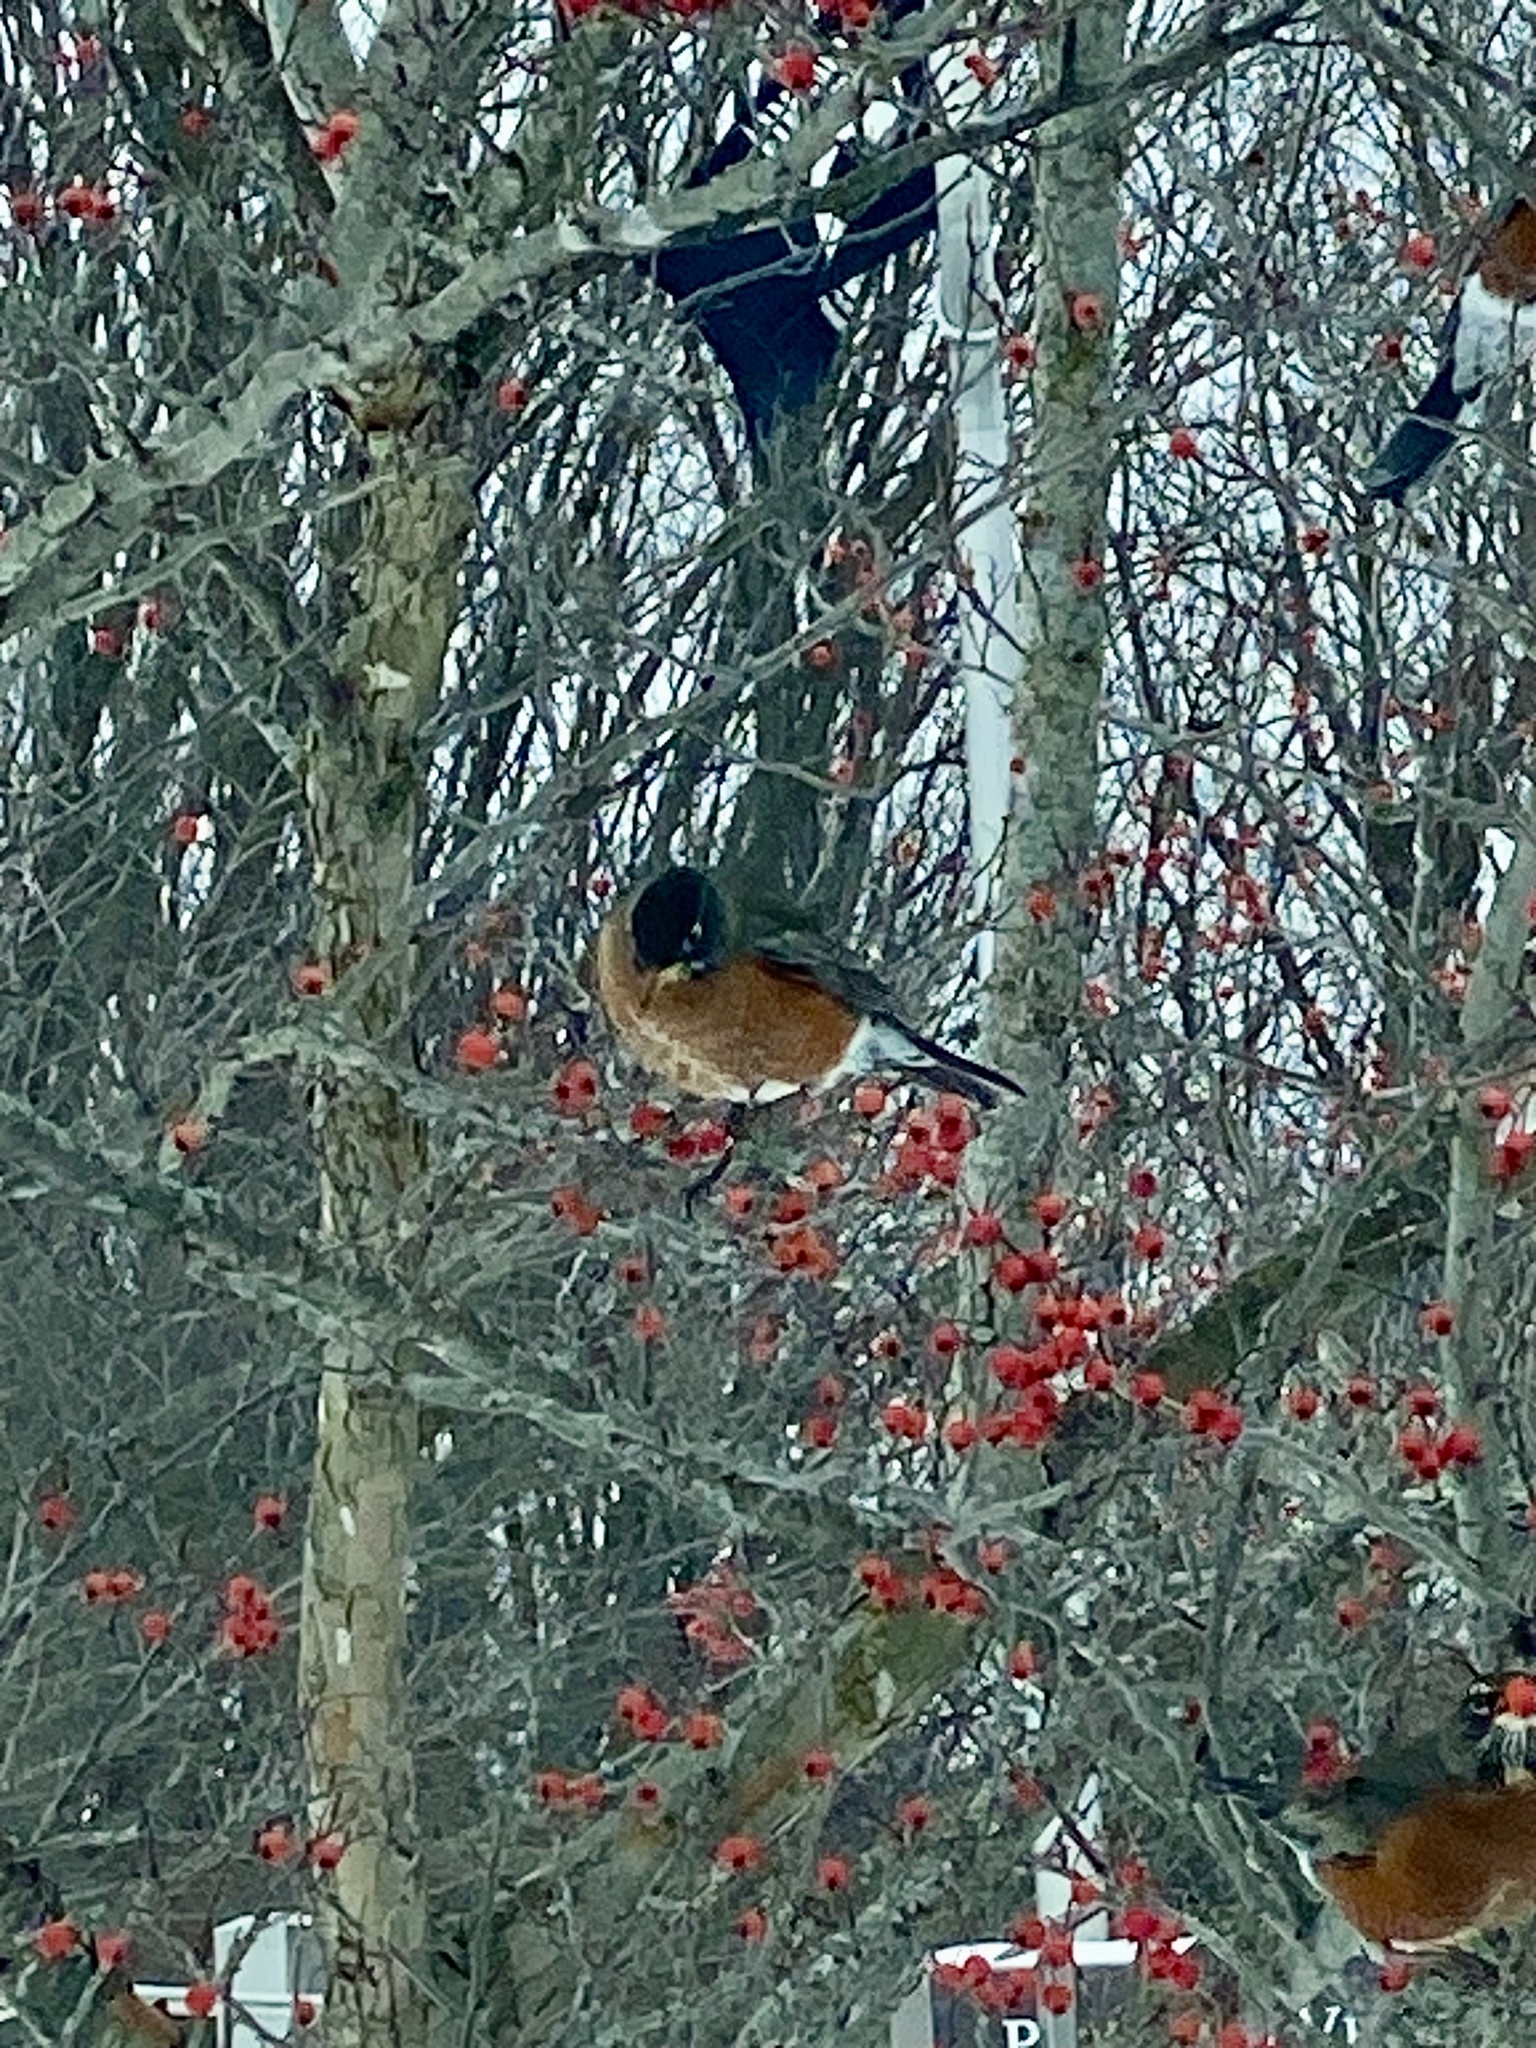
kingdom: Animalia
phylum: Chordata
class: Aves
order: Passeriformes
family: Turdidae
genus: Turdus
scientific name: Turdus migratorius
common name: American robin
